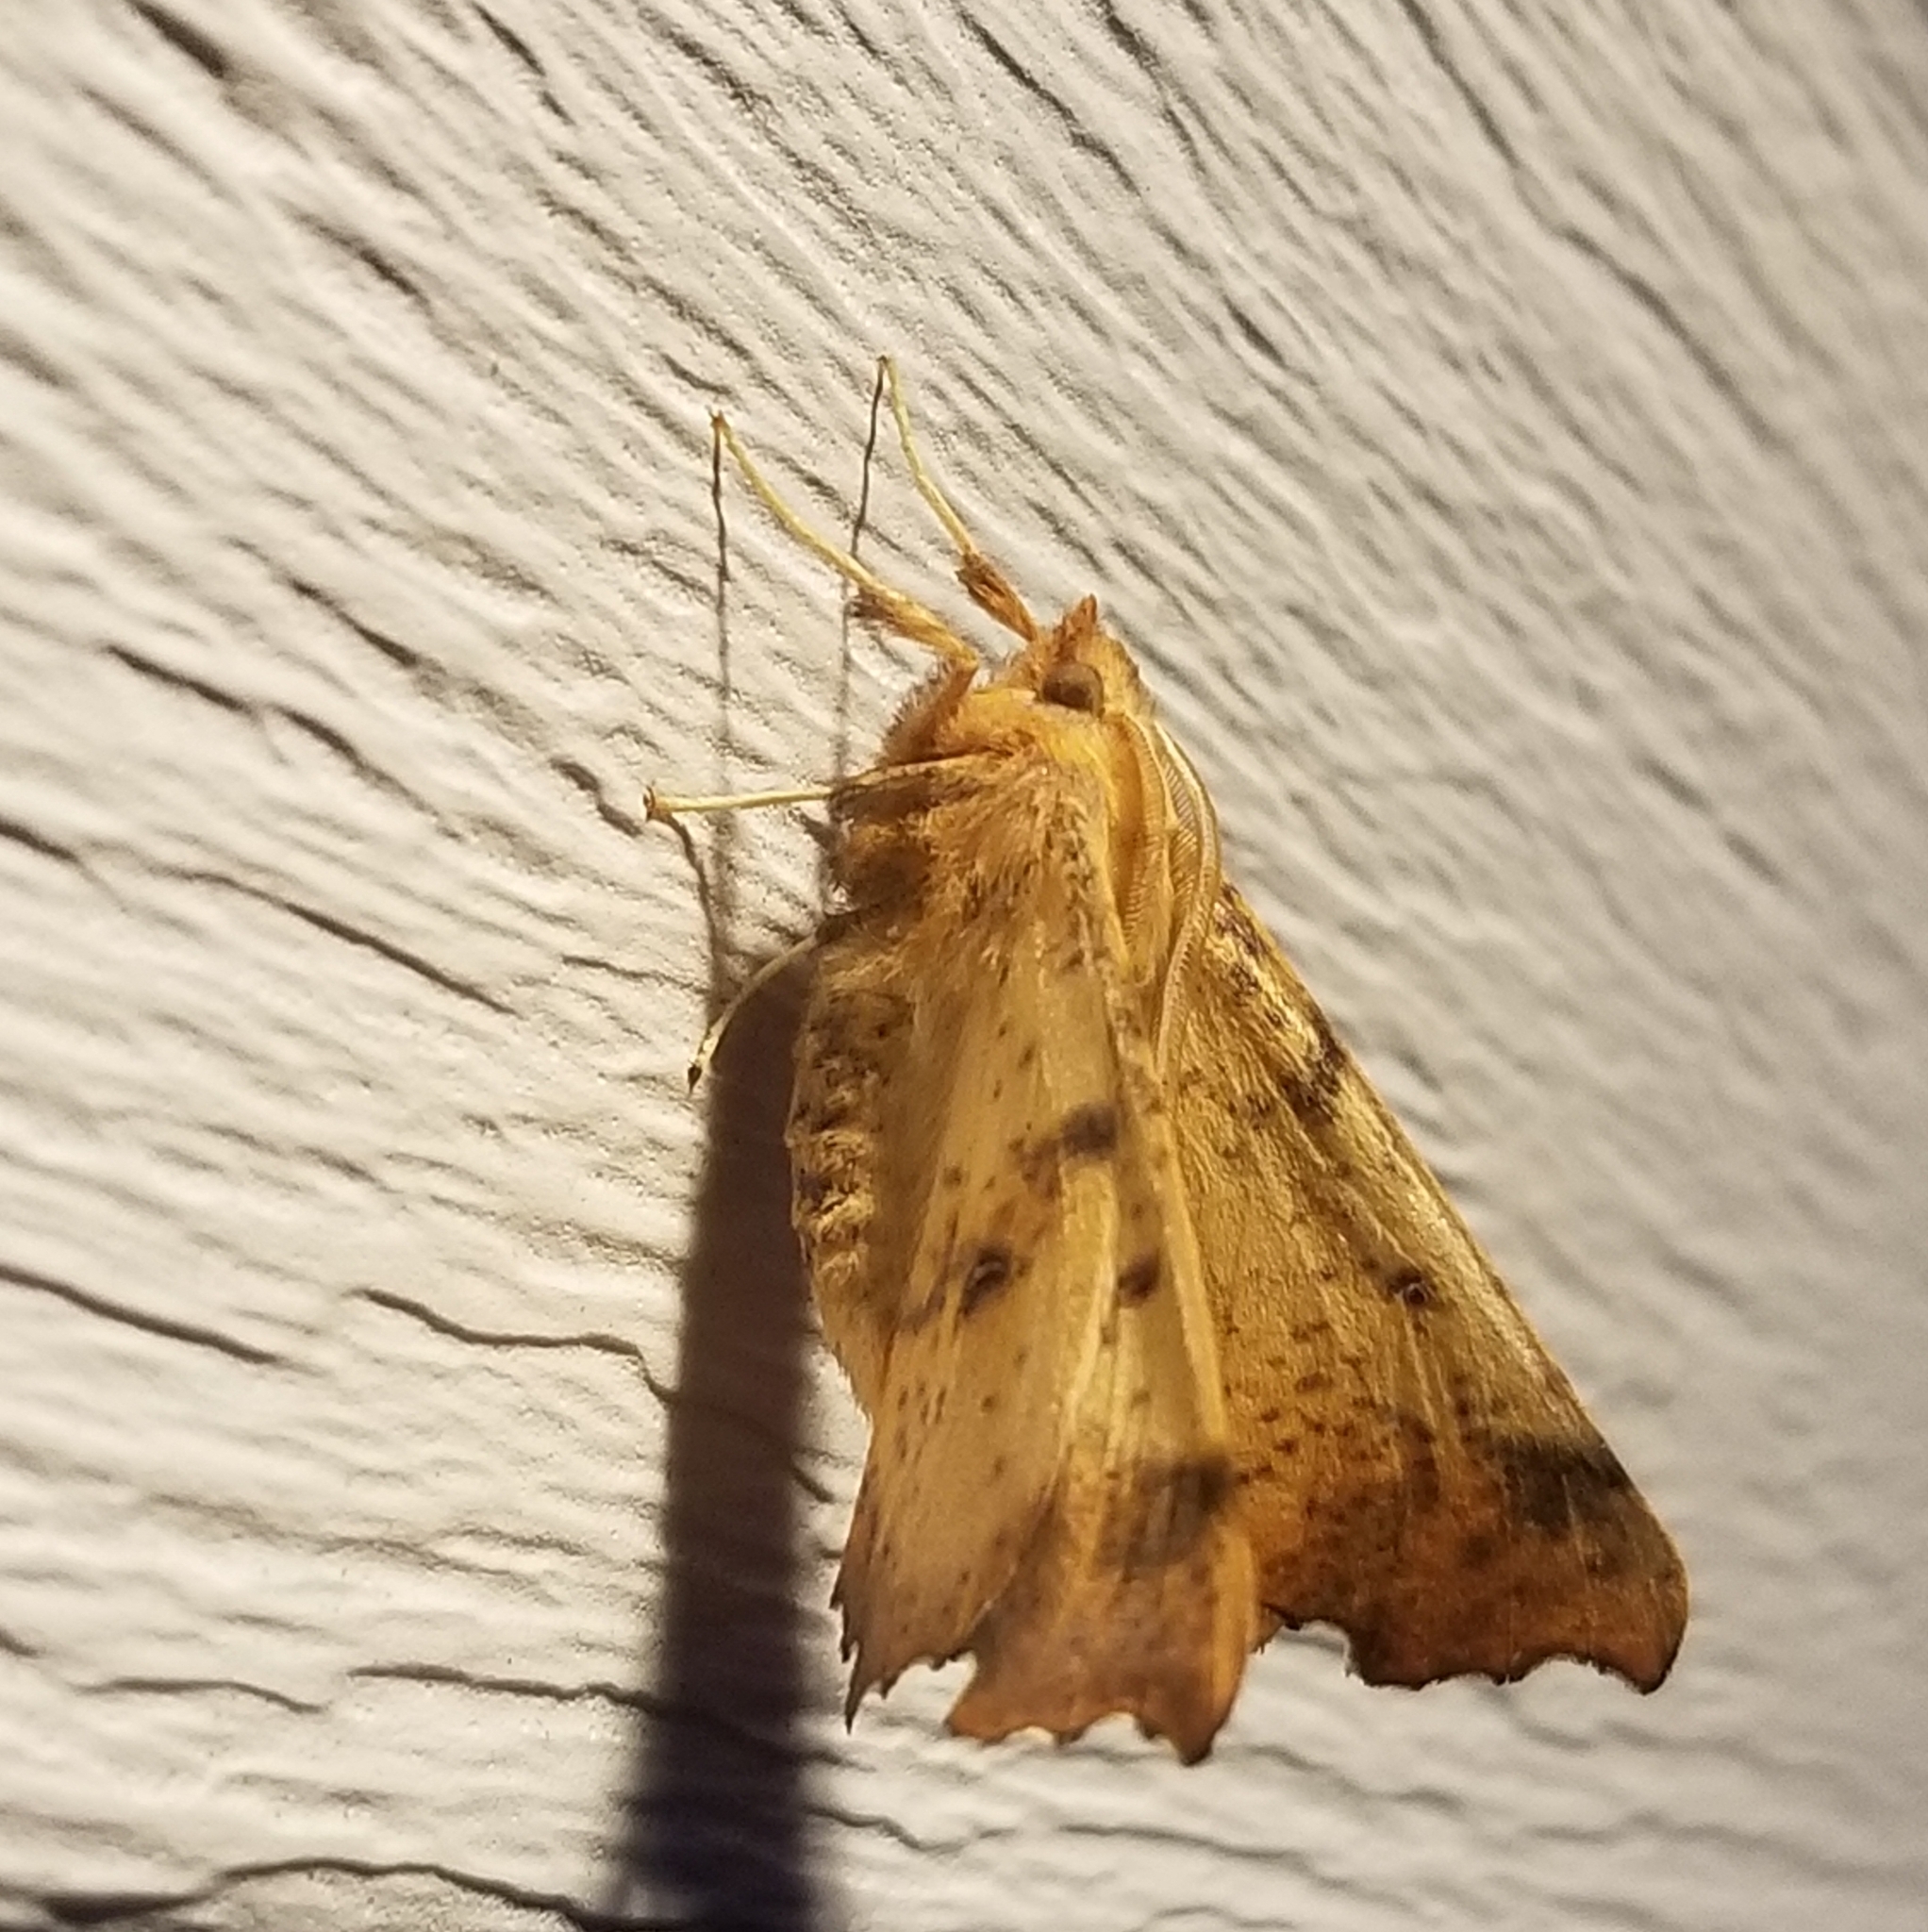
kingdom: Animalia
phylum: Arthropoda
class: Insecta
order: Lepidoptera
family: Geometridae
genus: Ennomos
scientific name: Ennomos magnaria
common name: Maple spanworm
